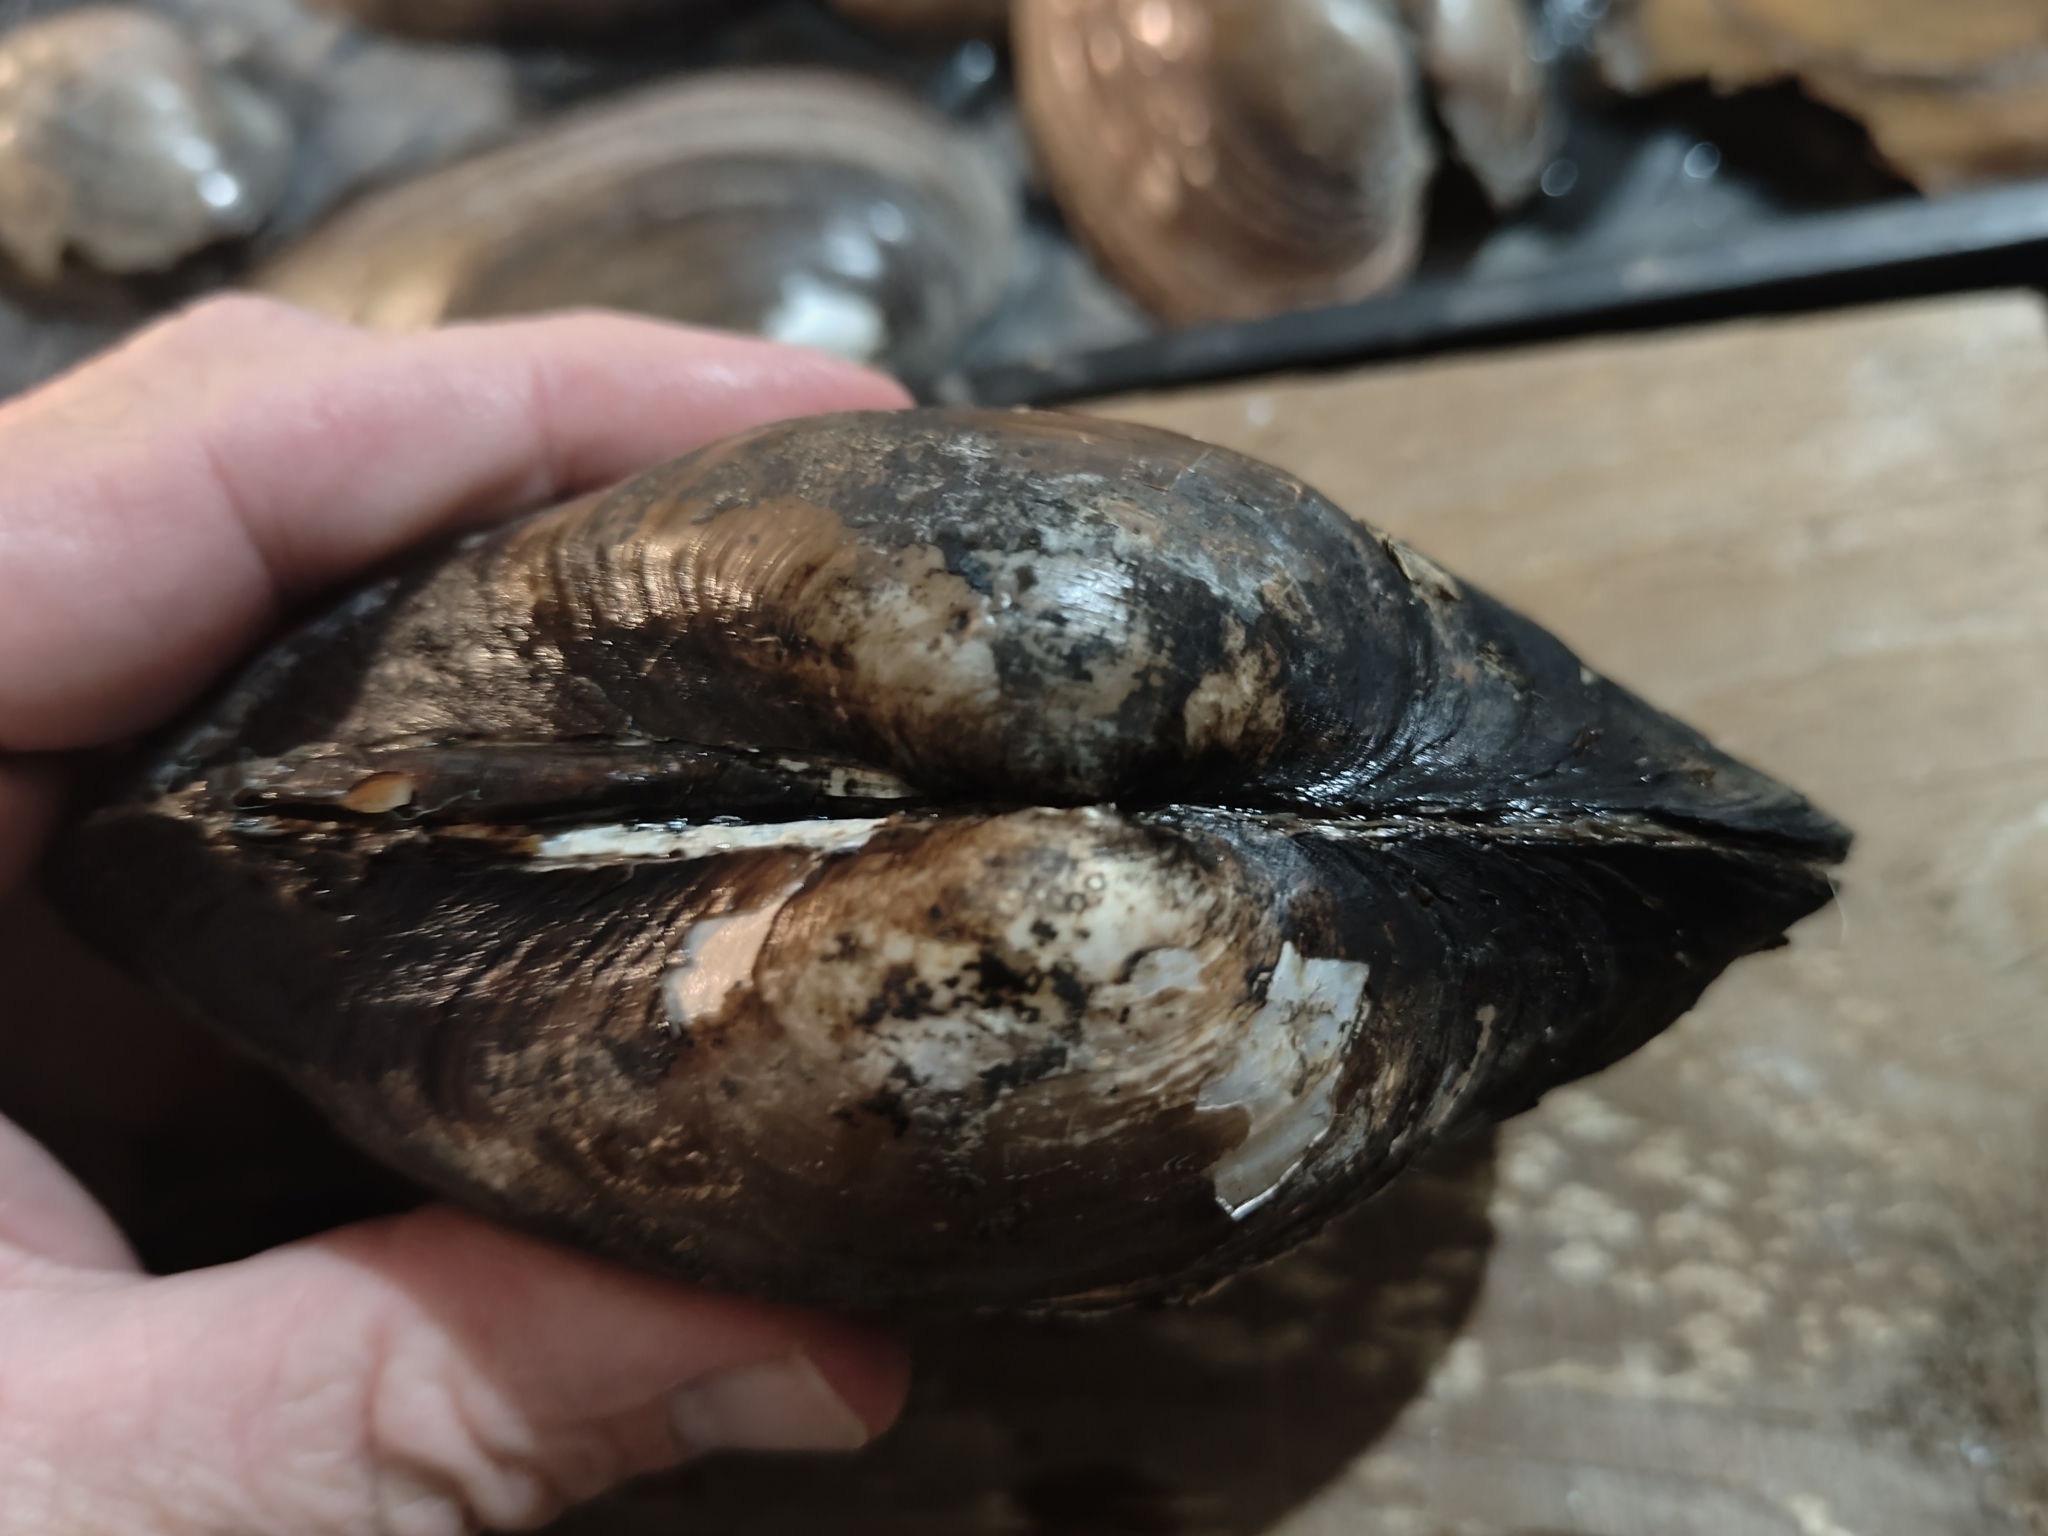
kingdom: Animalia
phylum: Mollusca
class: Bivalvia
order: Unionida
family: Unionidae
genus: Pyganodon
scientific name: Pyganodon grandis
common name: Giant floater
